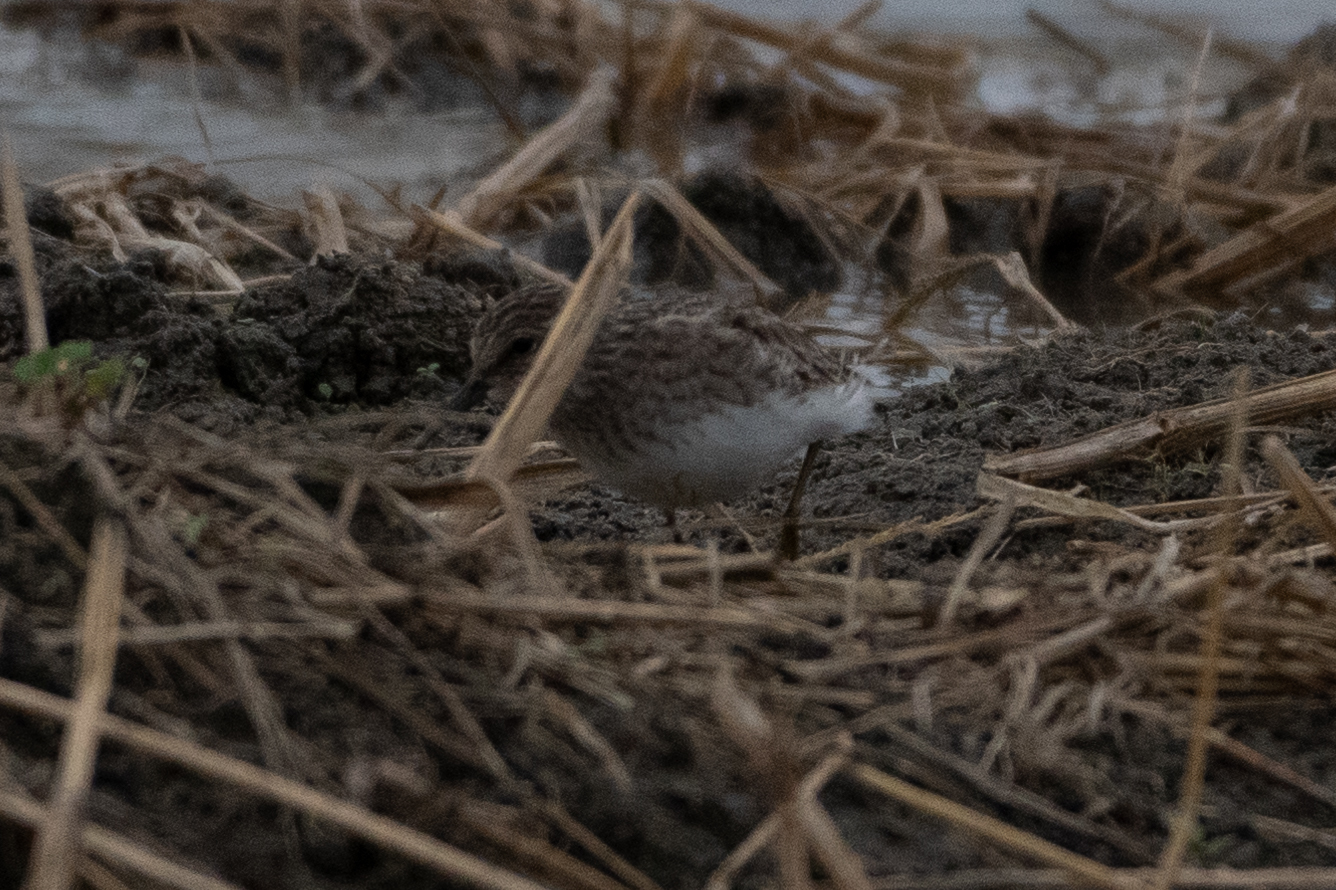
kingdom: Animalia
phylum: Chordata
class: Aves
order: Charadriiformes
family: Scolopacidae
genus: Calidris
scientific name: Calidris minutilla
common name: Least sandpiper
